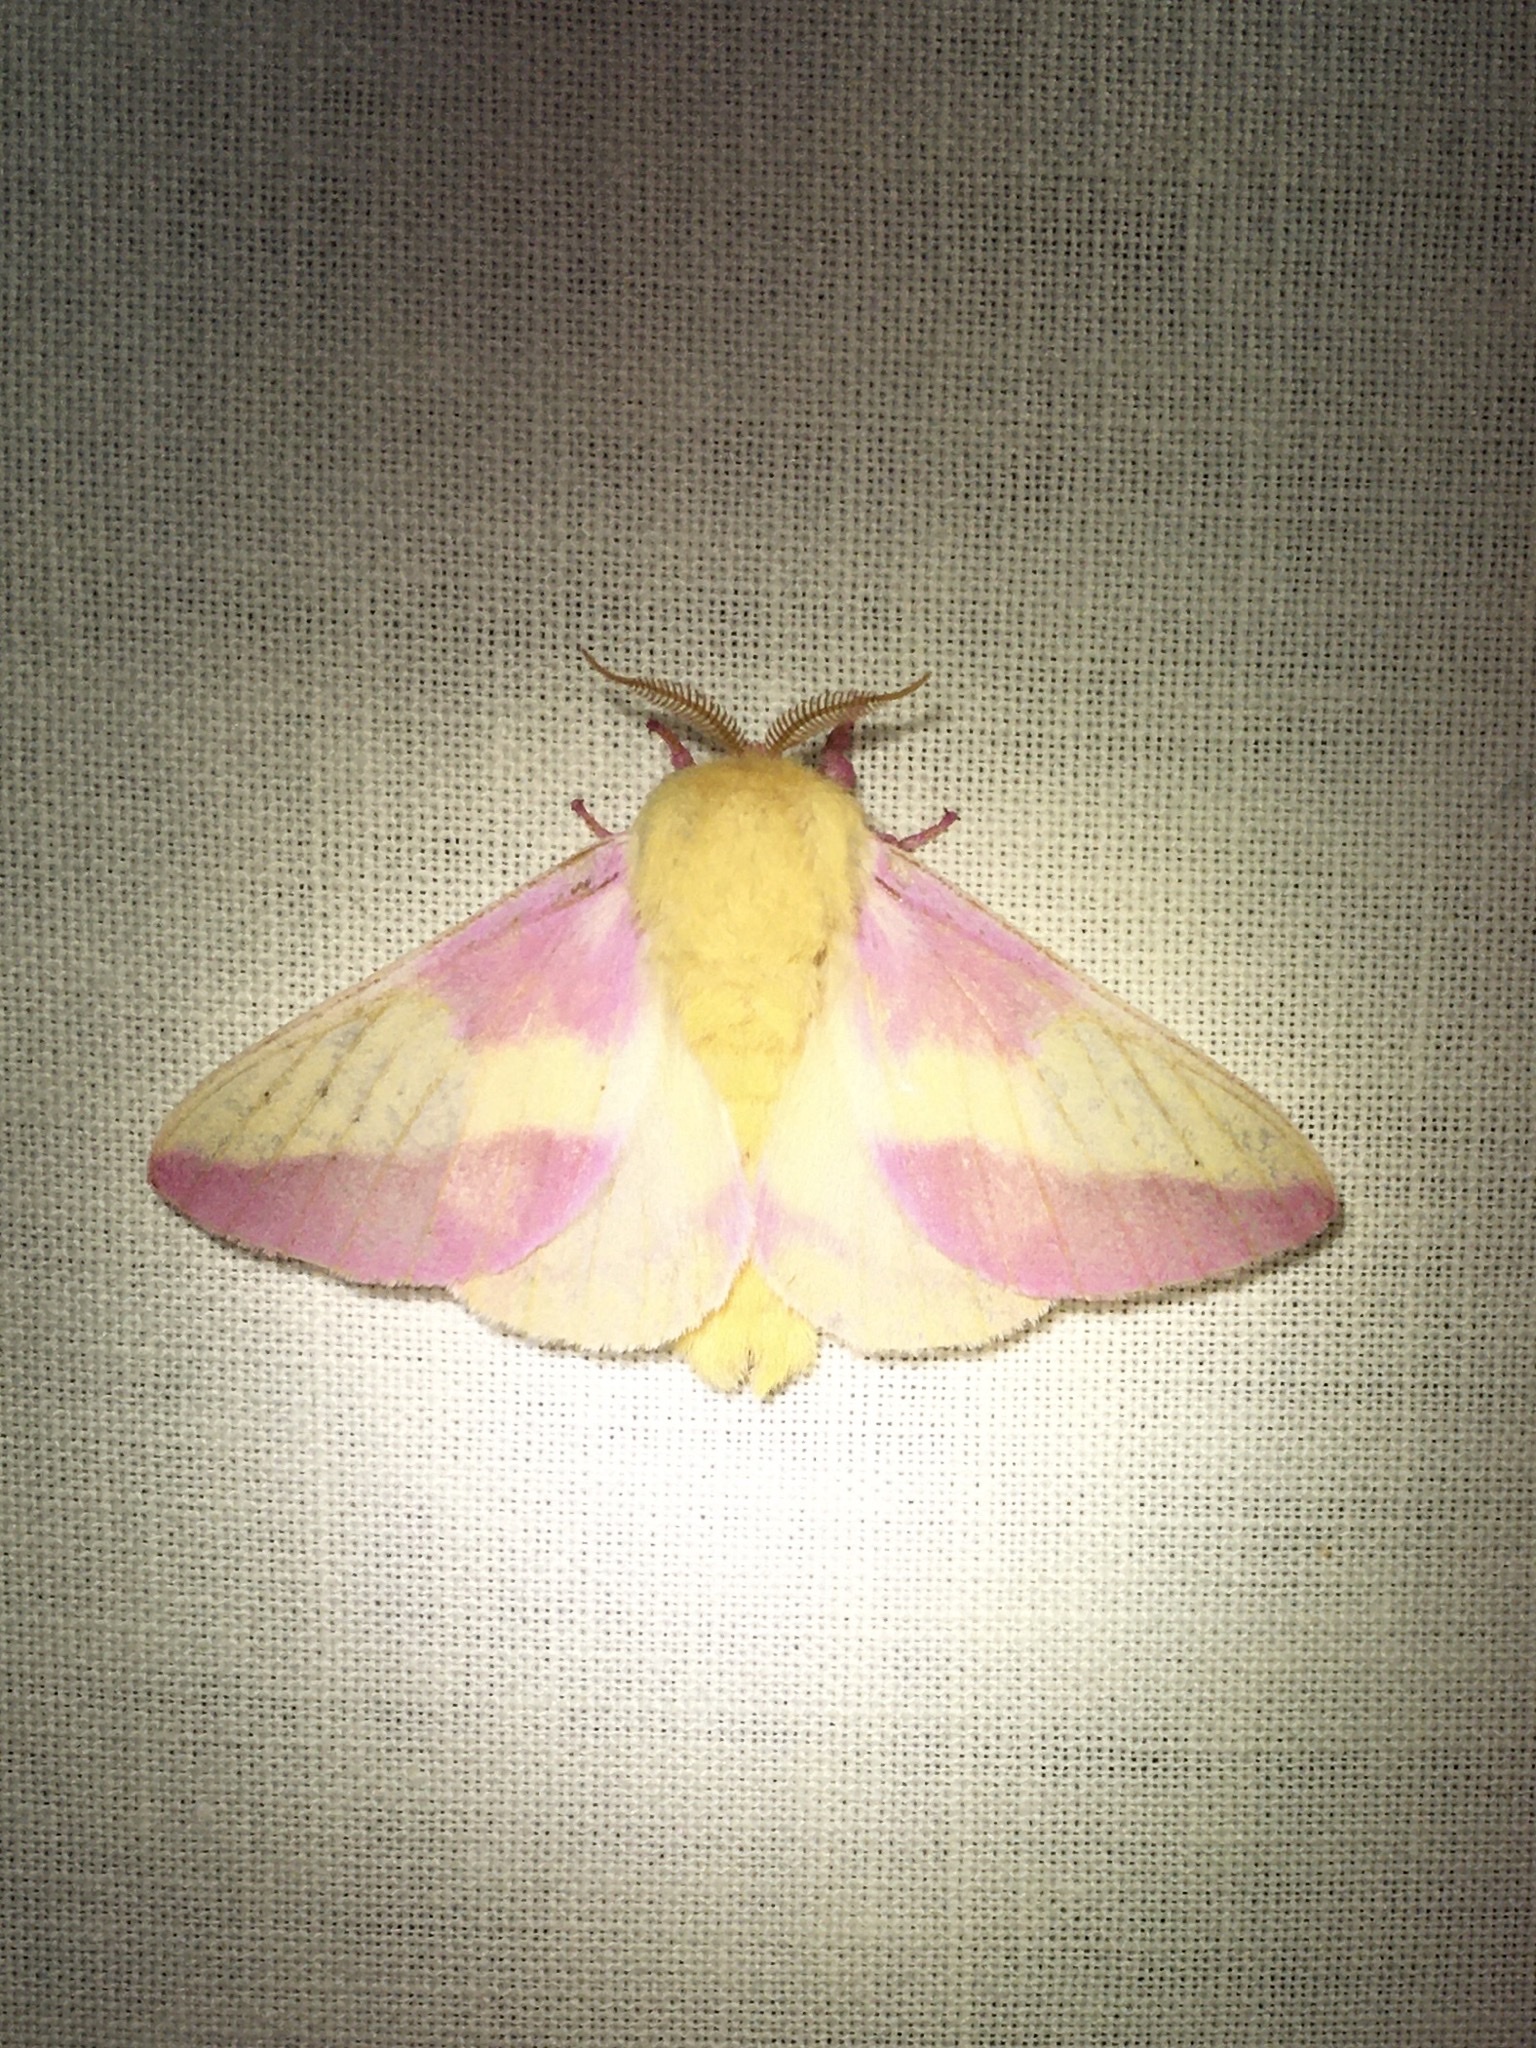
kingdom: Animalia
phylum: Arthropoda
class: Insecta
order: Lepidoptera
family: Saturniidae
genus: Dryocampa
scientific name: Dryocampa rubicunda
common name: Rosy maple moth
